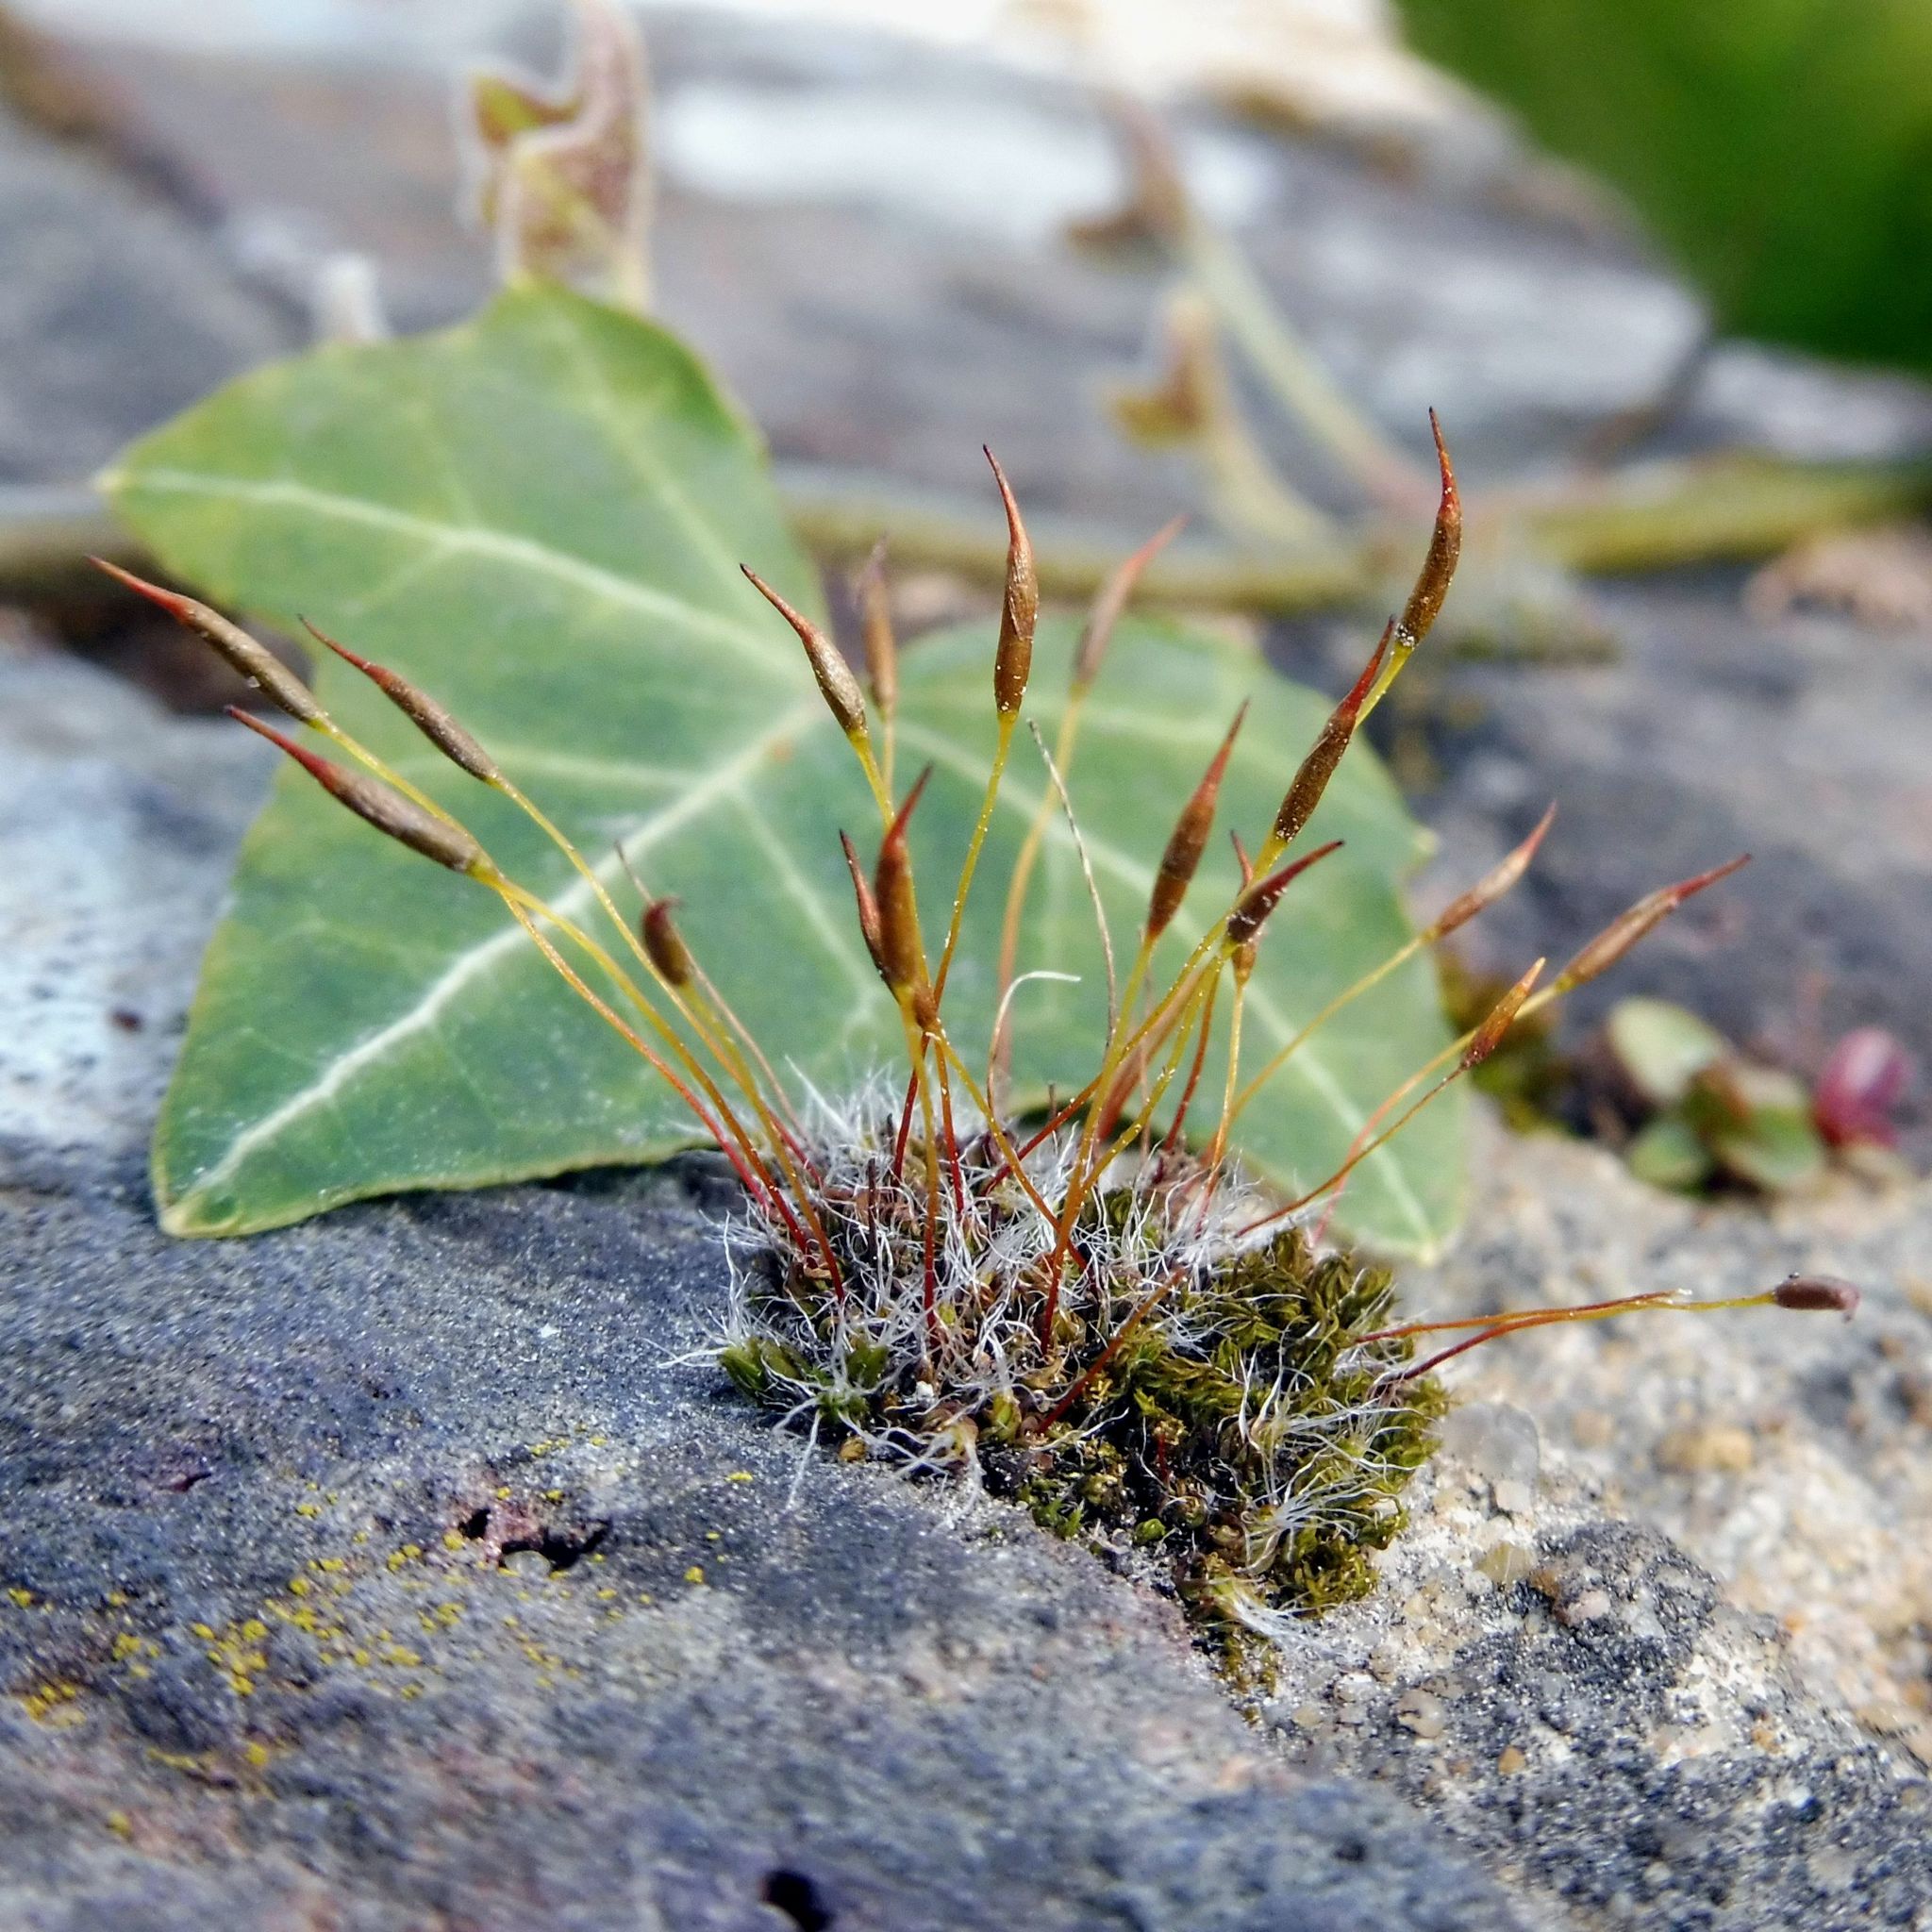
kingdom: Plantae
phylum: Bryophyta
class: Bryopsida
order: Pottiales
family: Pottiaceae
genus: Tortula
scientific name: Tortula muralis
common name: Wall screw-moss
